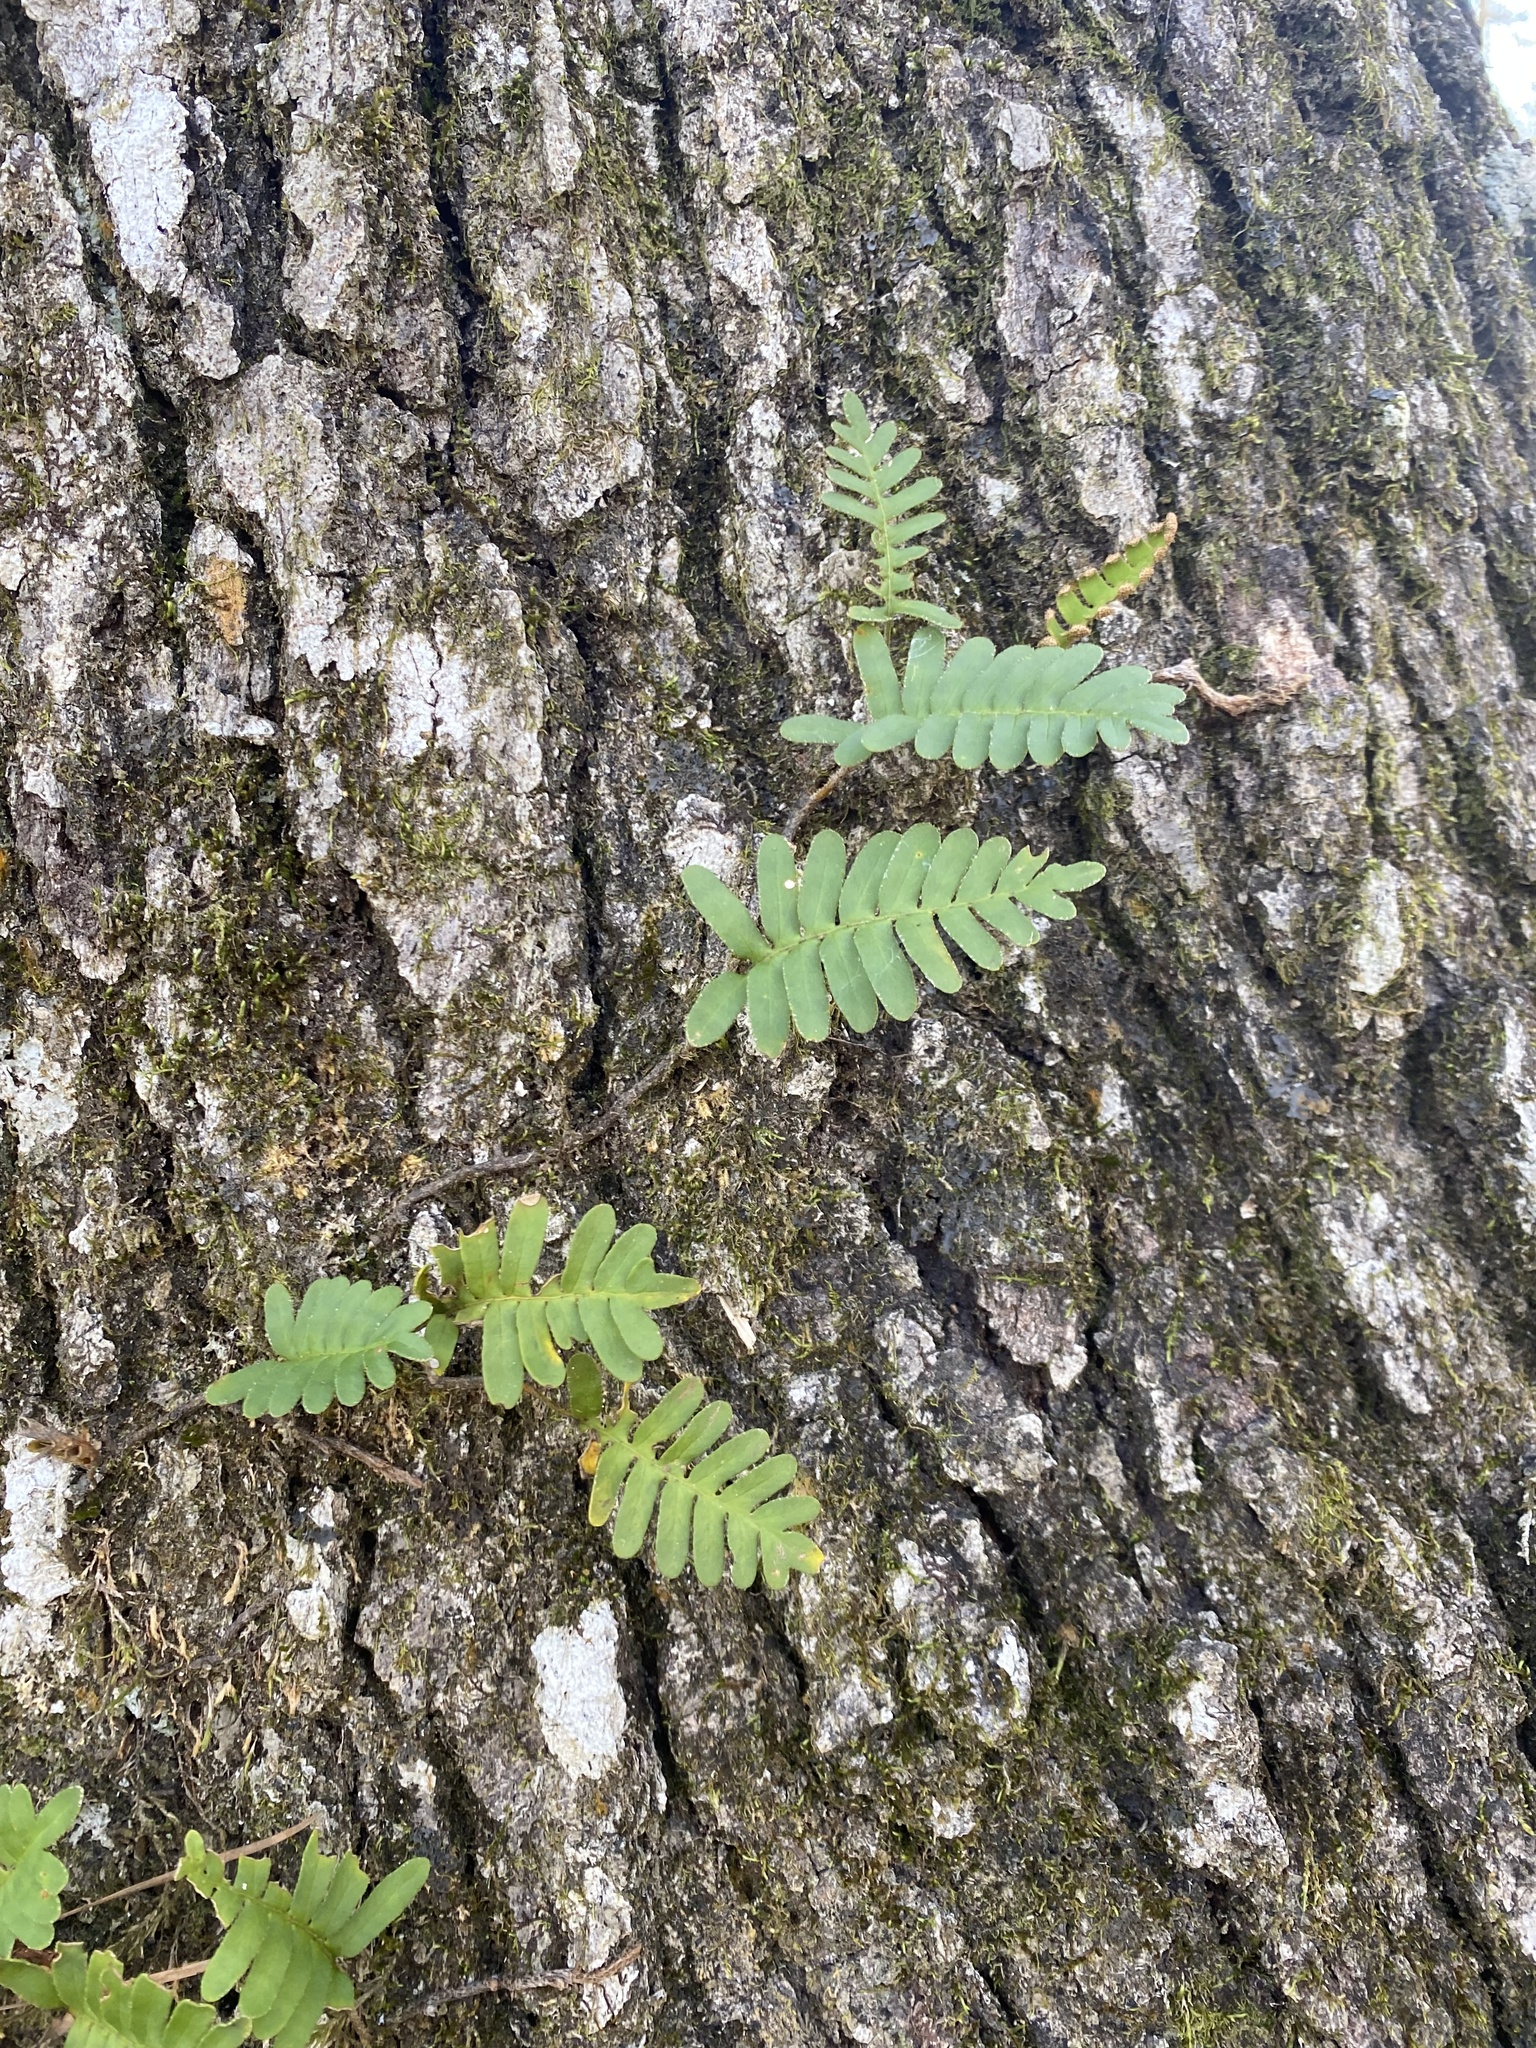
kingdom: Plantae
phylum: Tracheophyta
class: Polypodiopsida
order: Polypodiales
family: Polypodiaceae
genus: Pleopeltis
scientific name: Pleopeltis michauxiana
